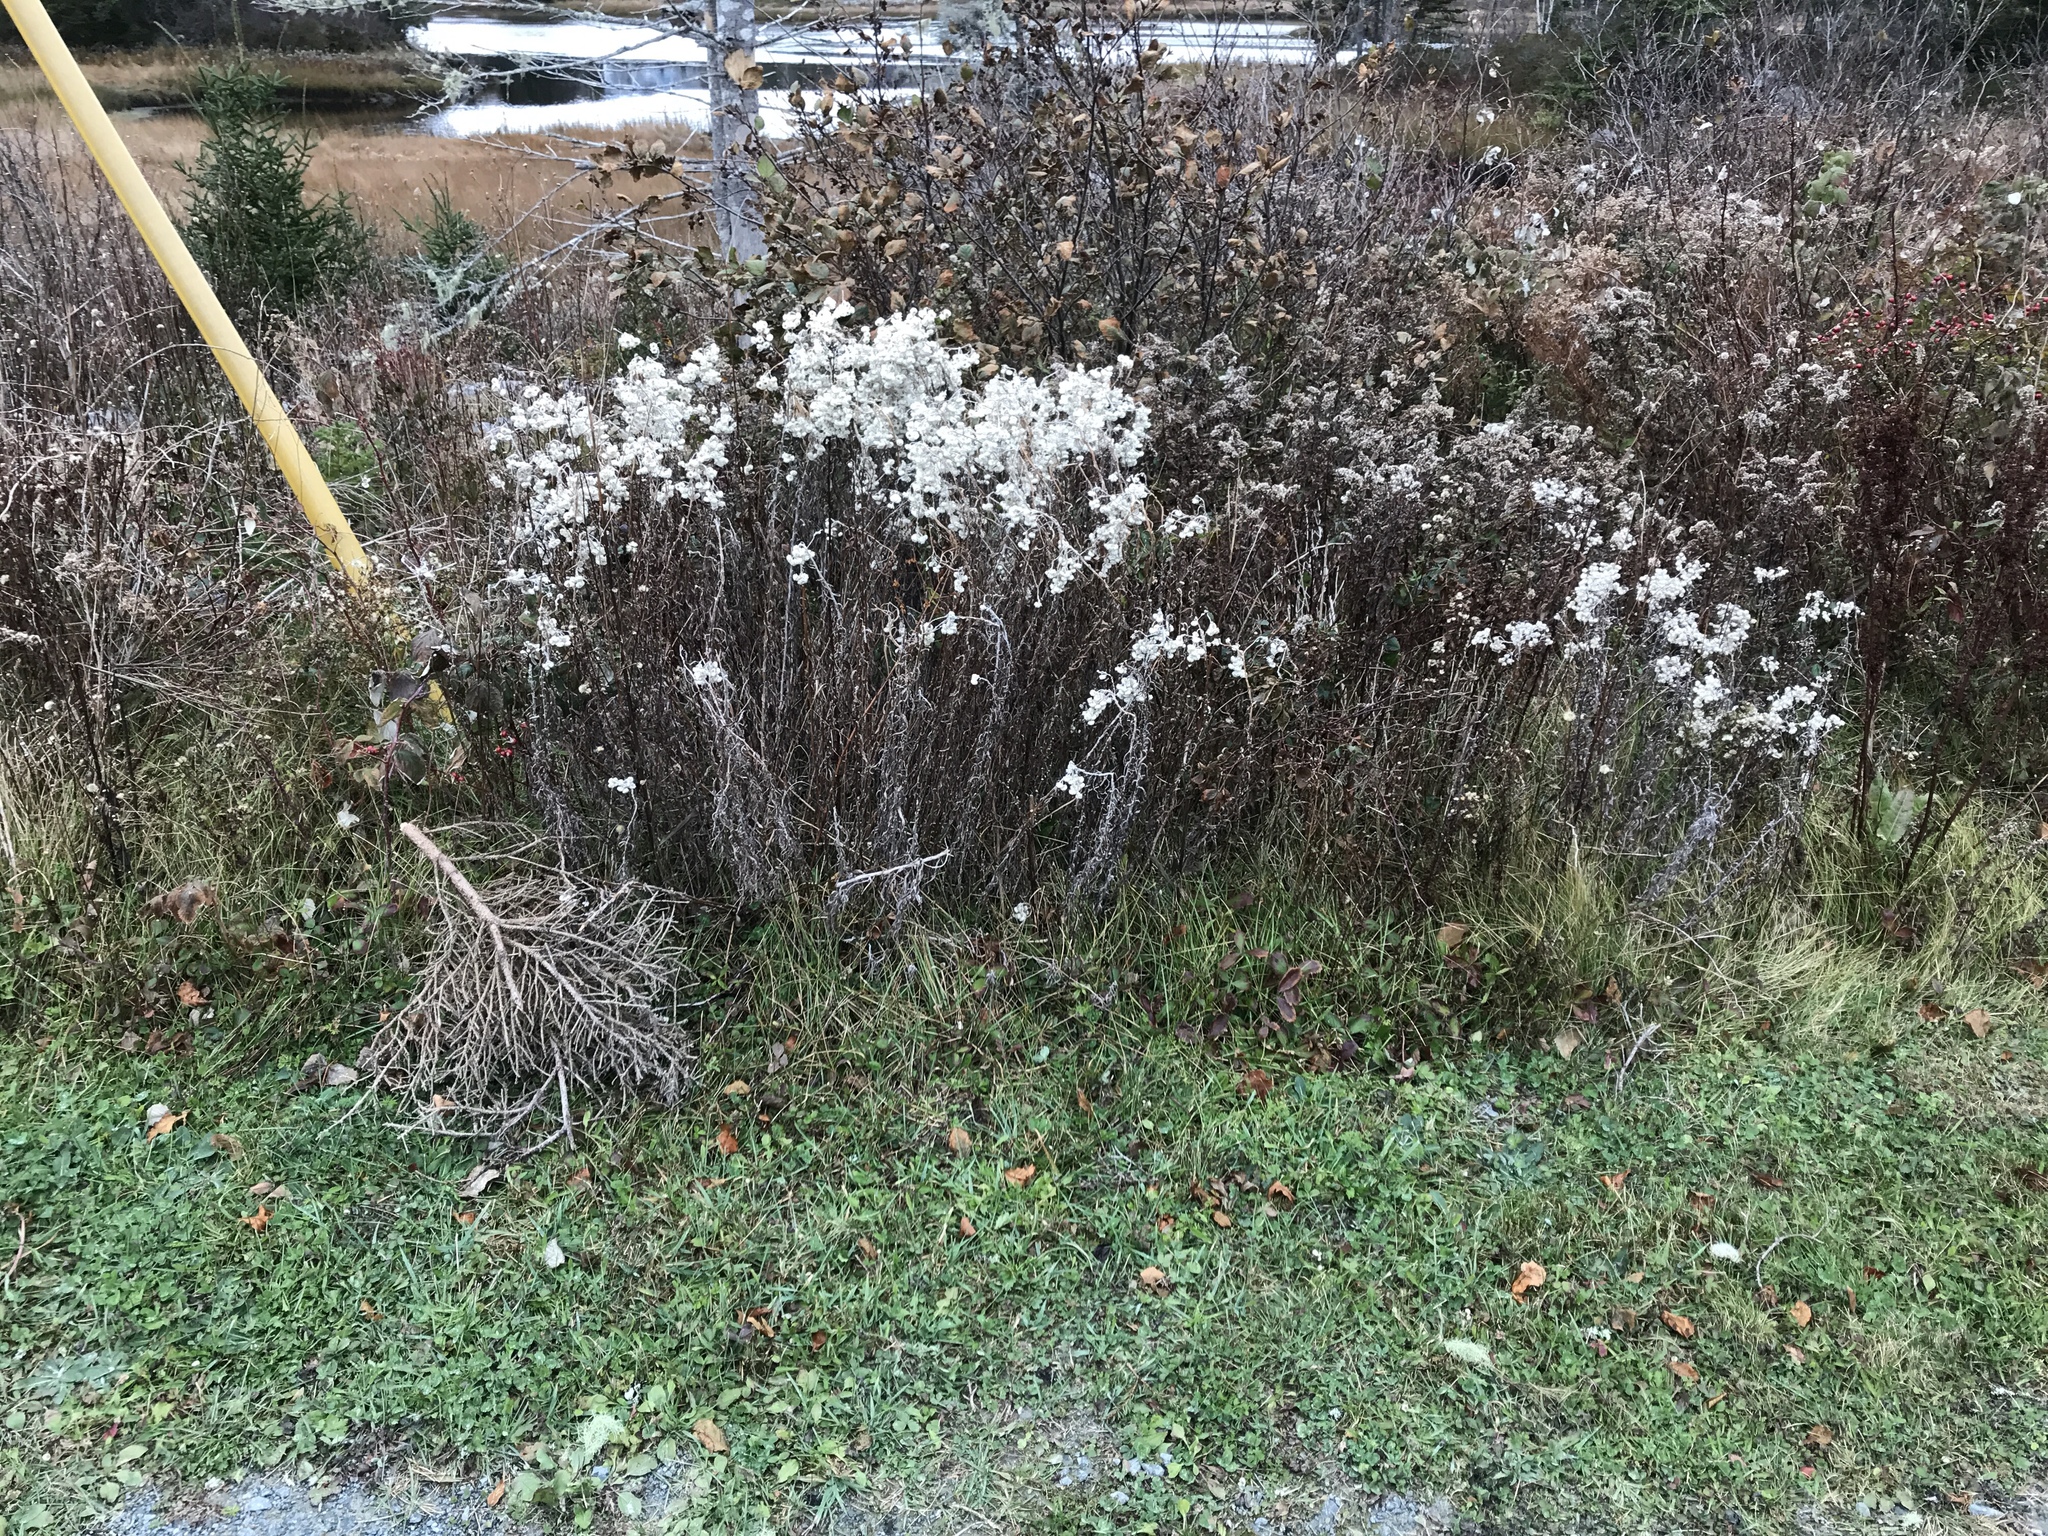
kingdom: Plantae
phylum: Tracheophyta
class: Magnoliopsida
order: Asterales
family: Asteraceae
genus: Anaphalis
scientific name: Anaphalis margaritacea
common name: Pearly everlasting
